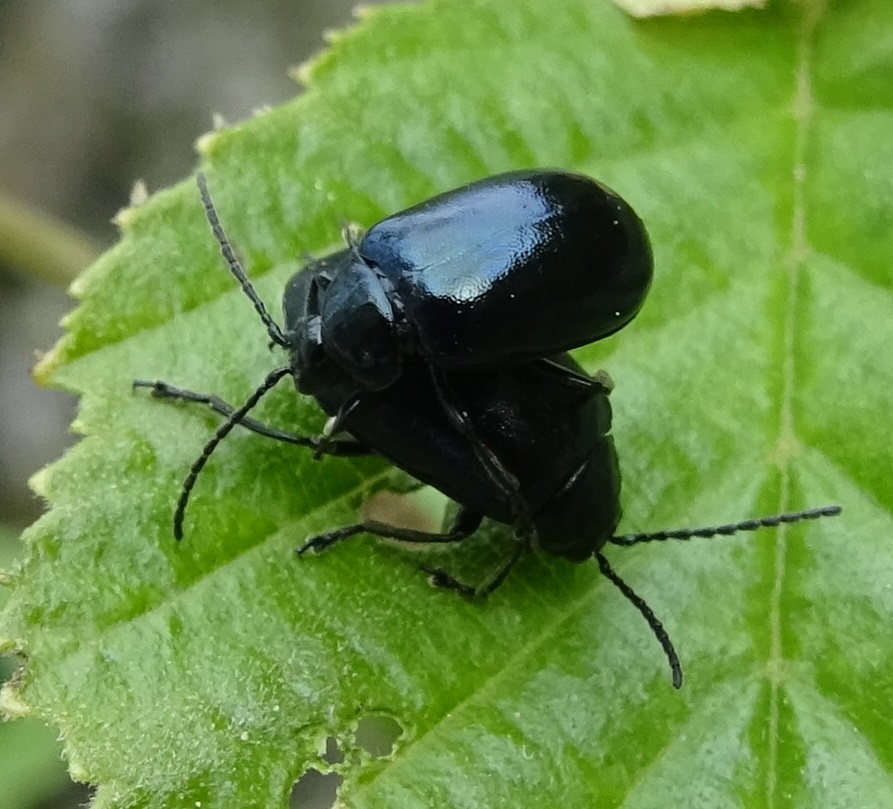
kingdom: Animalia
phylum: Arthropoda
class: Insecta
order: Coleoptera
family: Chrysomelidae
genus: Agelastica
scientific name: Agelastica alni
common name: Alder leaf beetle
